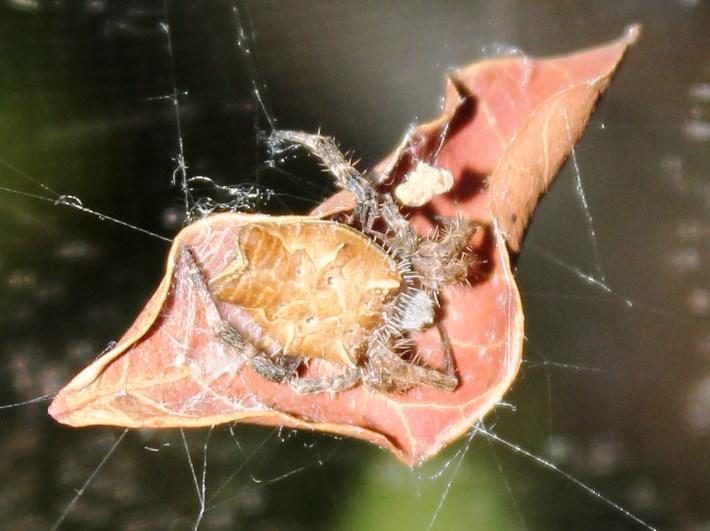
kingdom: Animalia
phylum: Arthropoda
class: Arachnida
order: Araneae
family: Araneidae
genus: Cyrtophora
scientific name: Cyrtophora citricola
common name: Orb weavers
